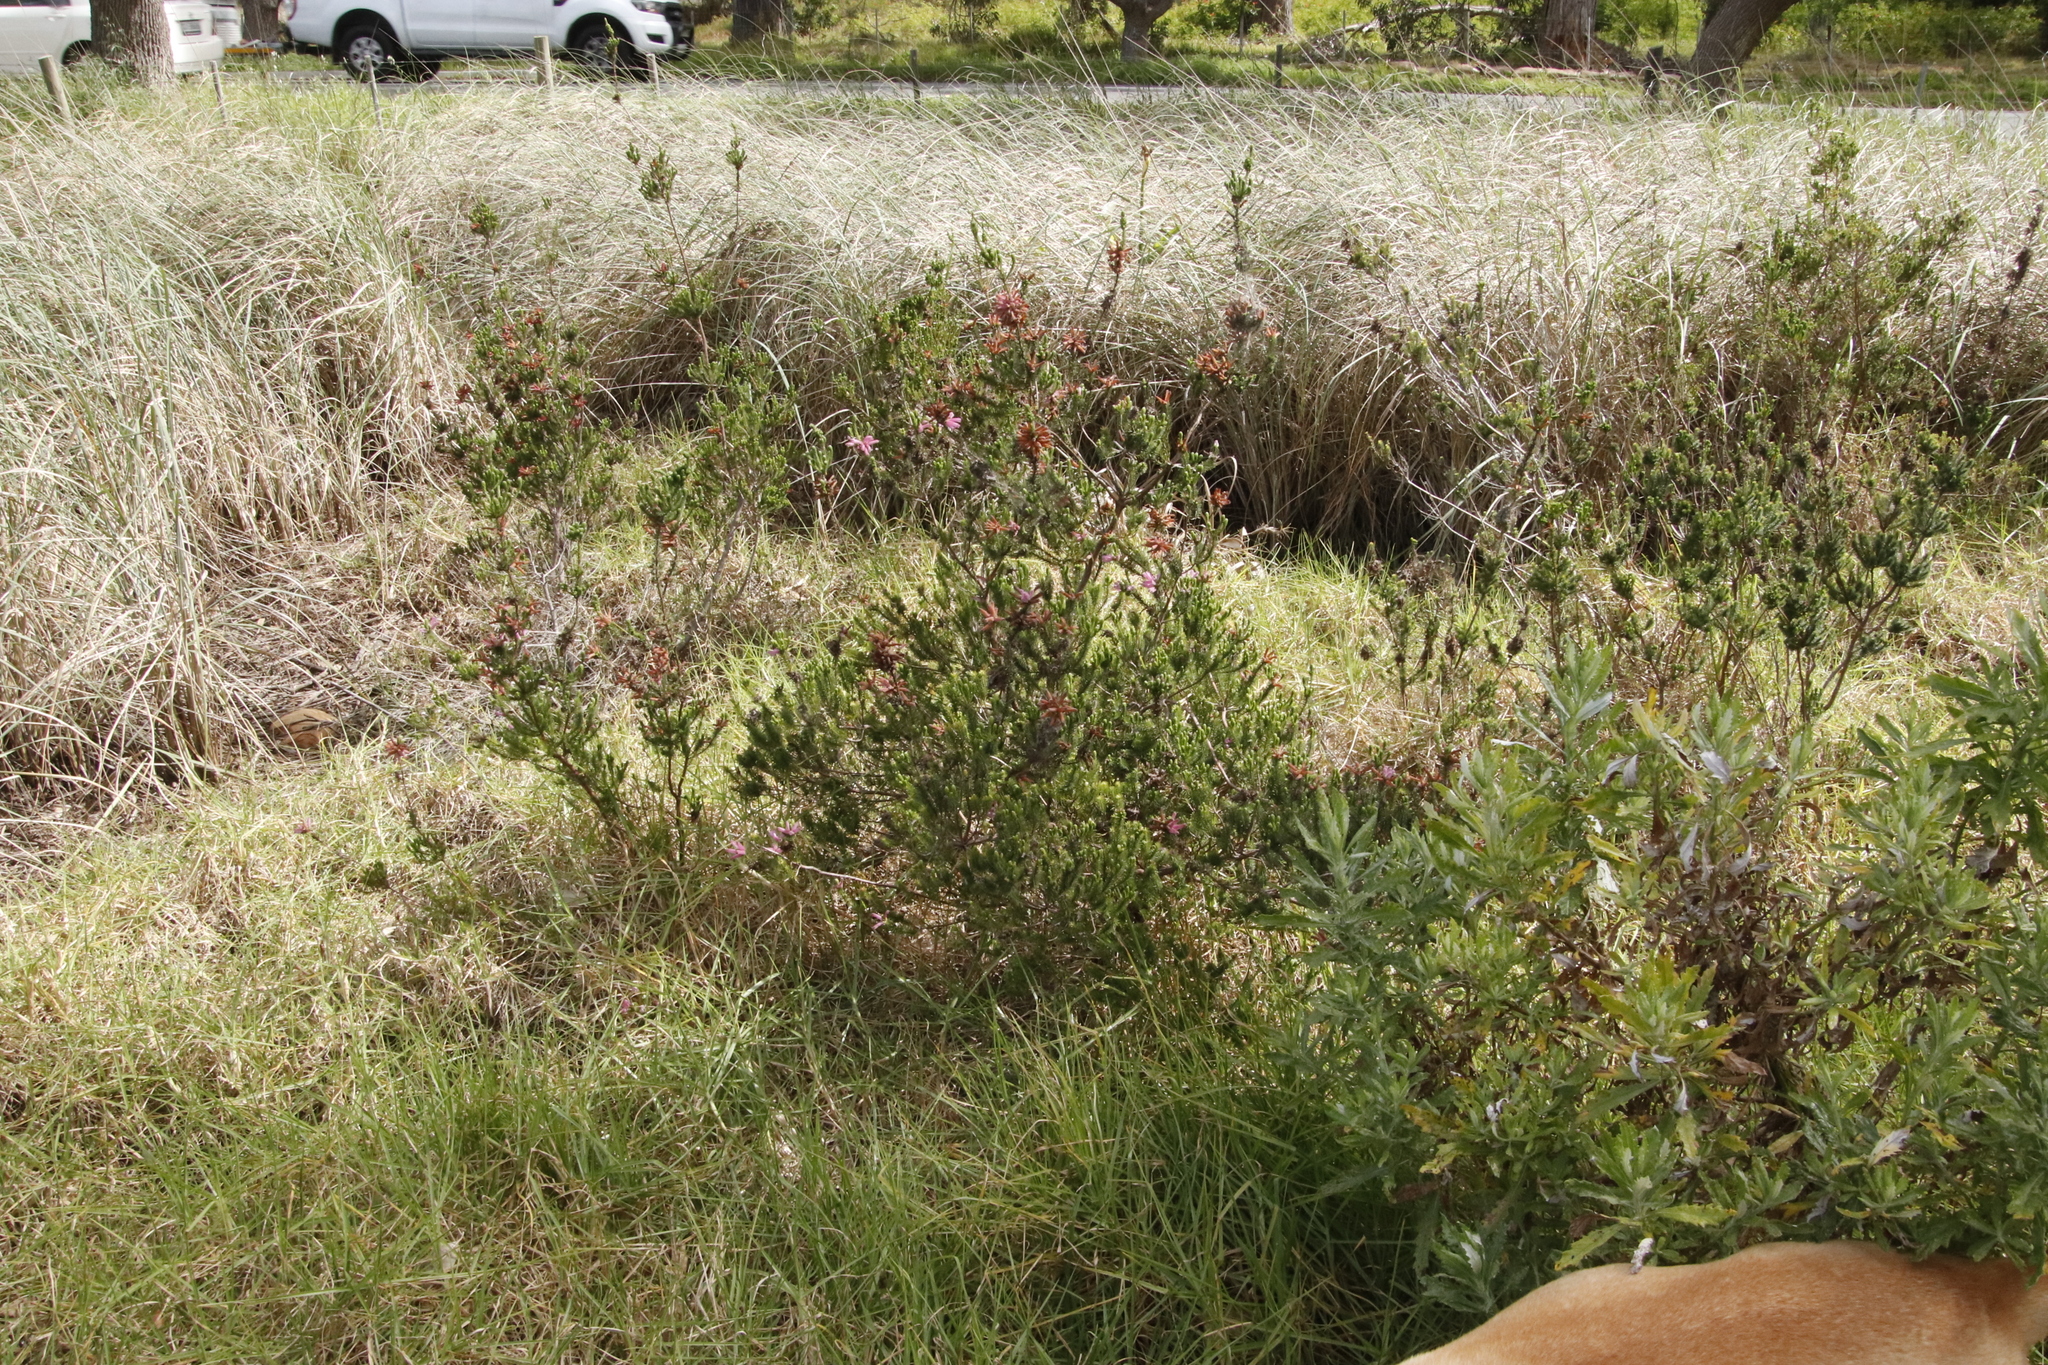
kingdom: Plantae
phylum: Tracheophyta
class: Magnoliopsida
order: Ericales
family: Ericaceae
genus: Erica
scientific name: Erica verticillata
